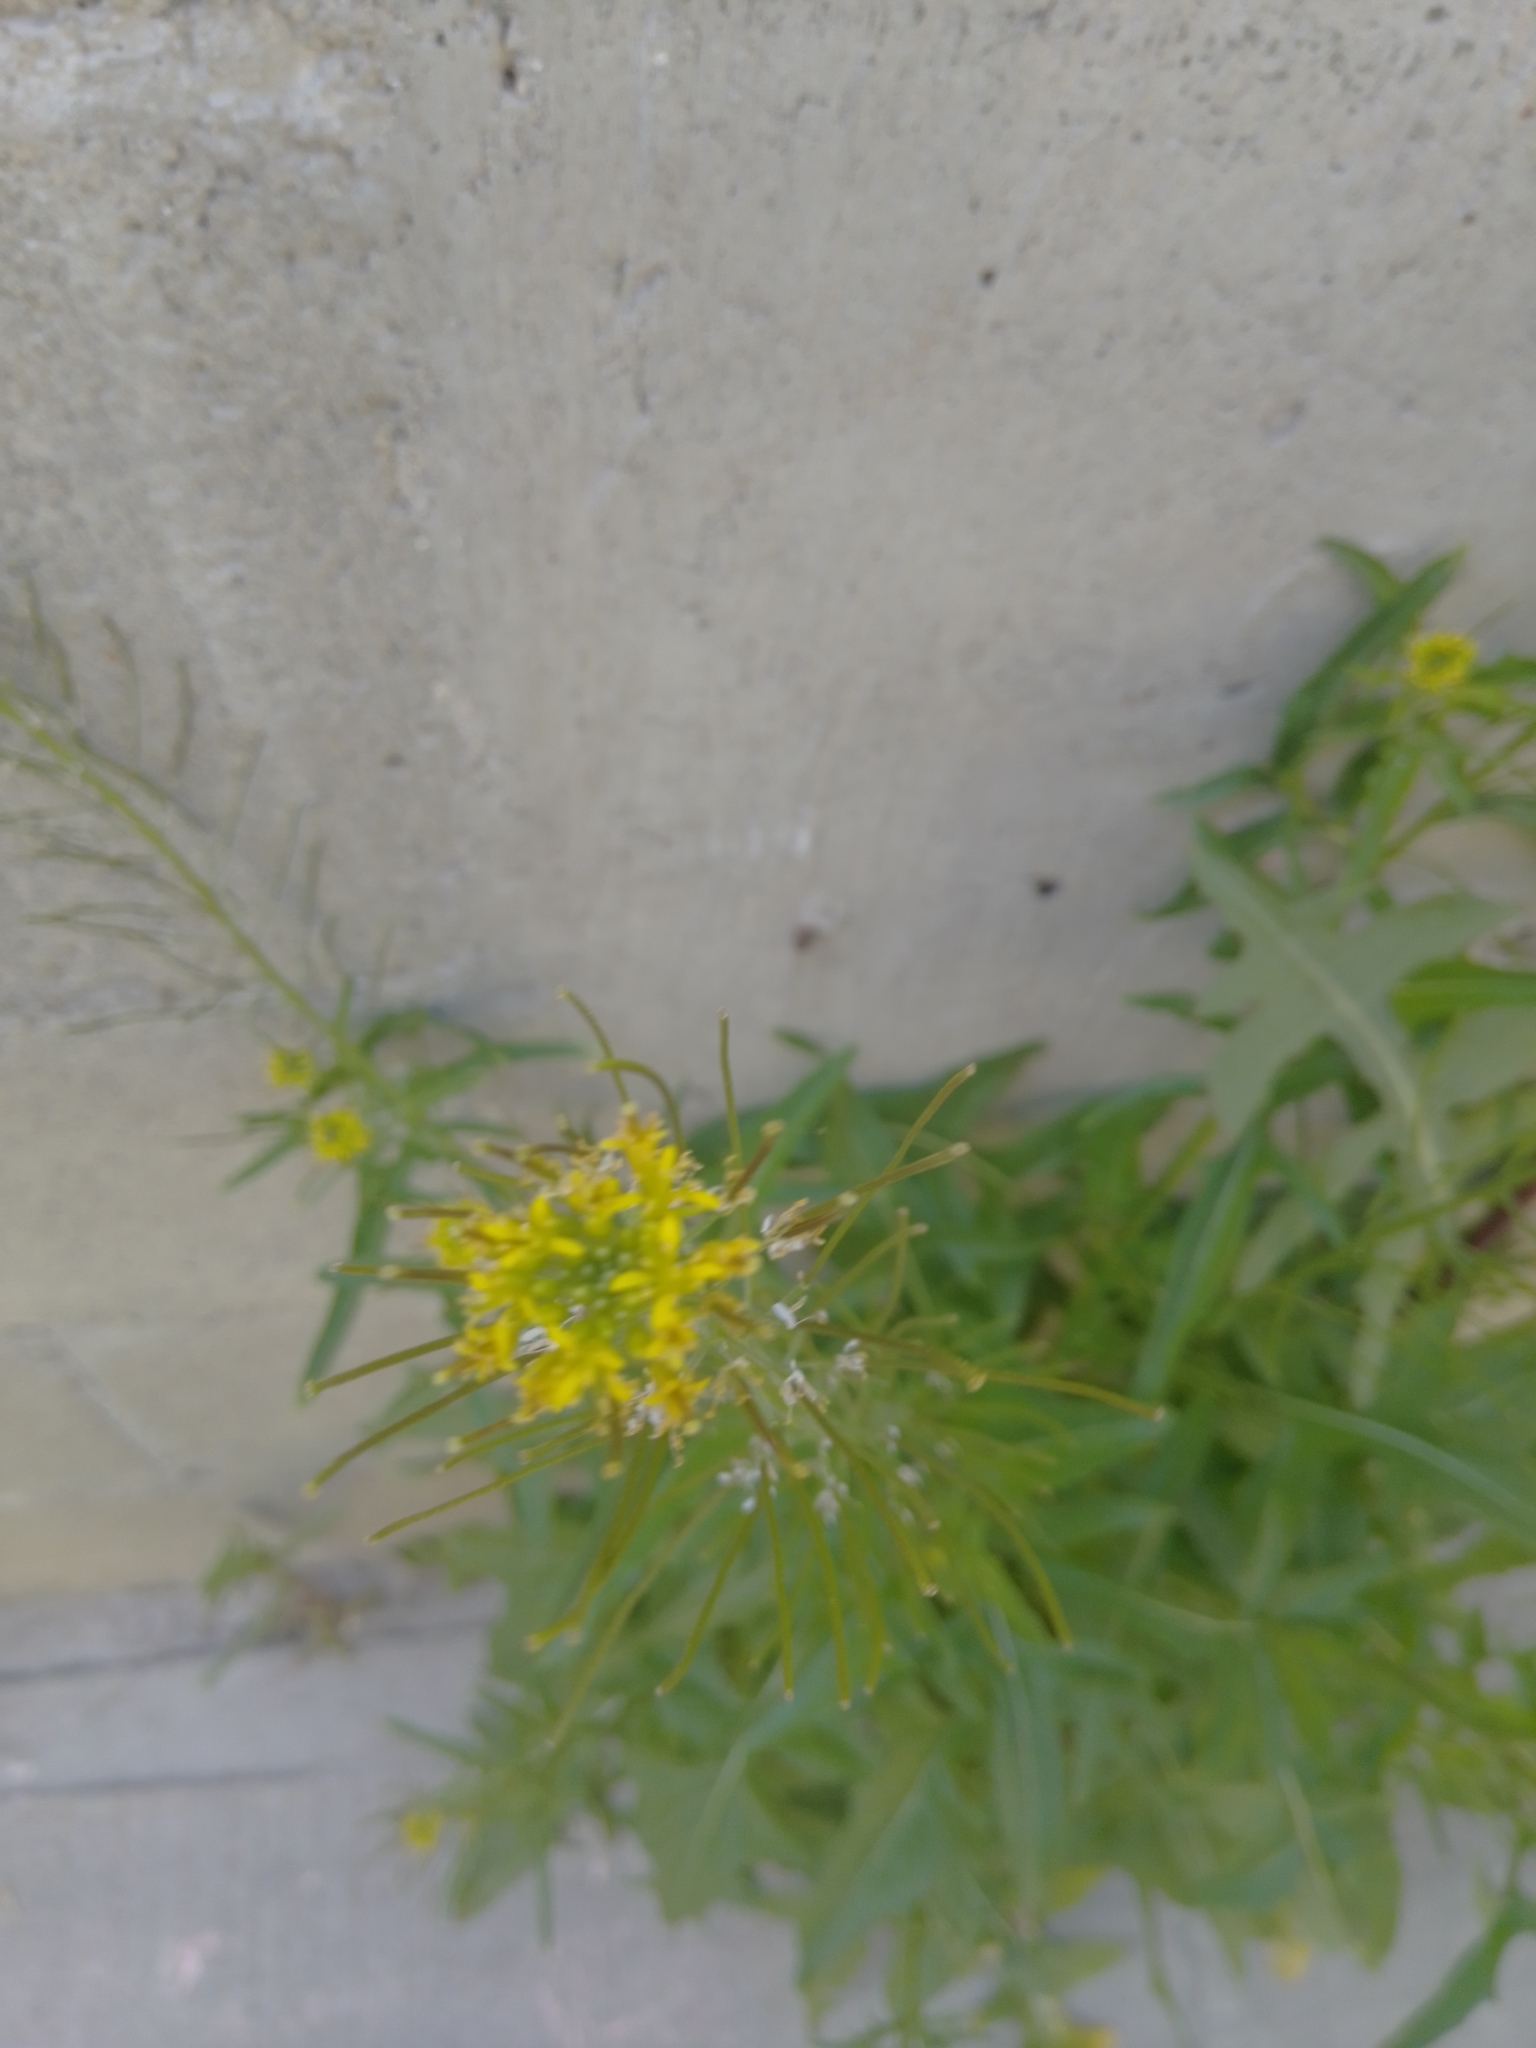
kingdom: Plantae
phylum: Tracheophyta
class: Magnoliopsida
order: Brassicales
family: Brassicaceae
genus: Sisymbrium
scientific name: Sisymbrium irio
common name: London rocket
